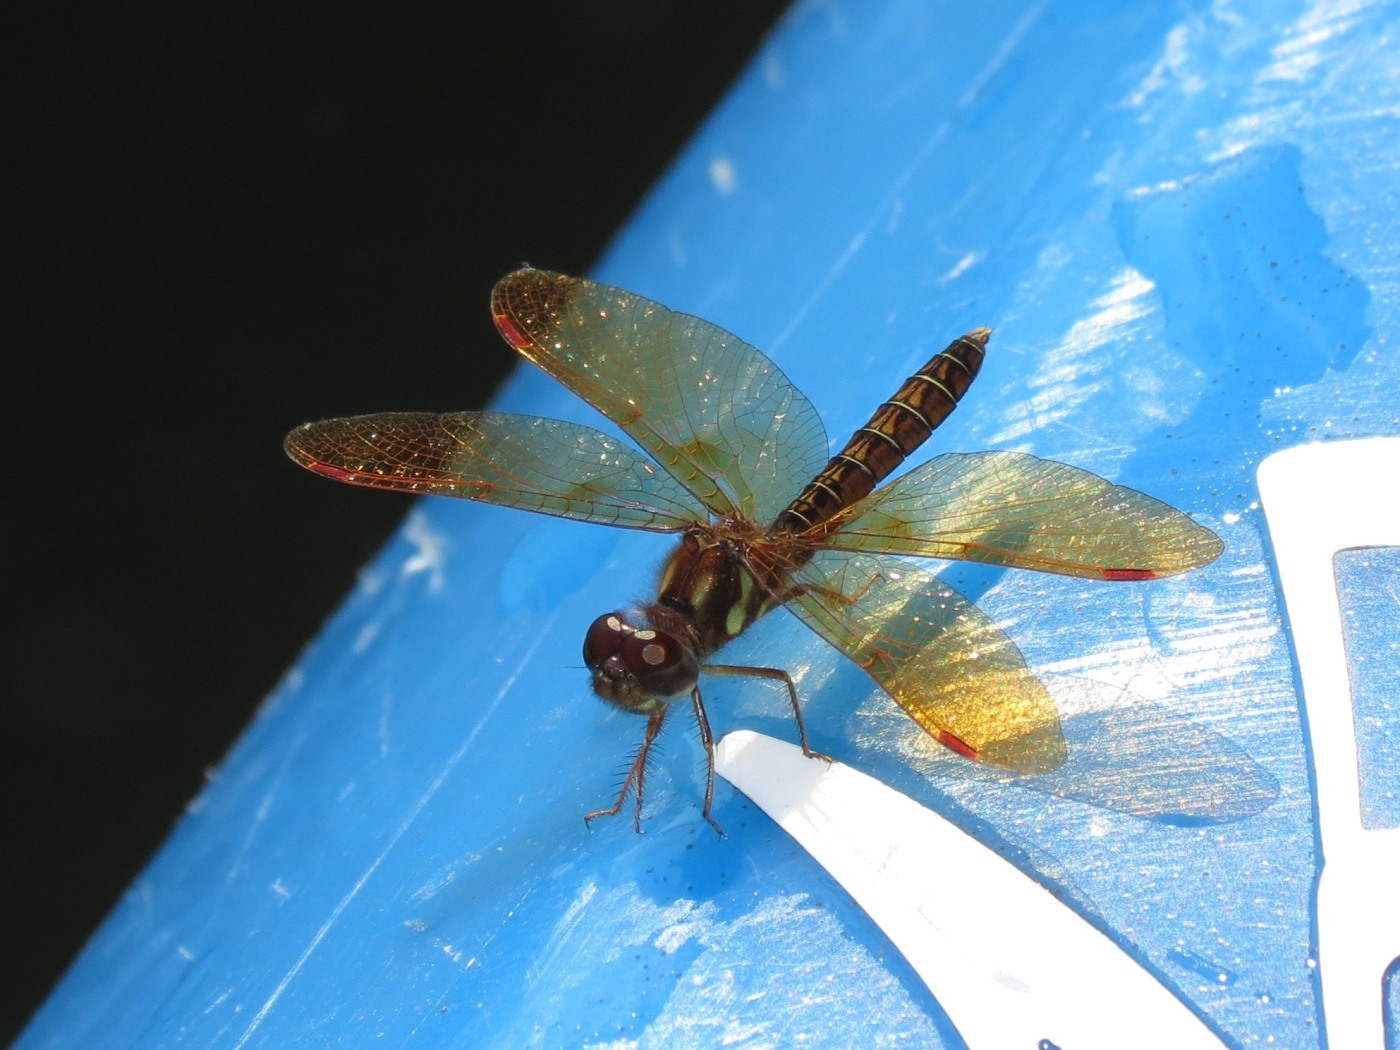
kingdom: Animalia
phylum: Arthropoda
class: Insecta
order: Odonata
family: Libellulidae
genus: Perithemis
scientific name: Perithemis tenera
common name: Eastern amberwing
